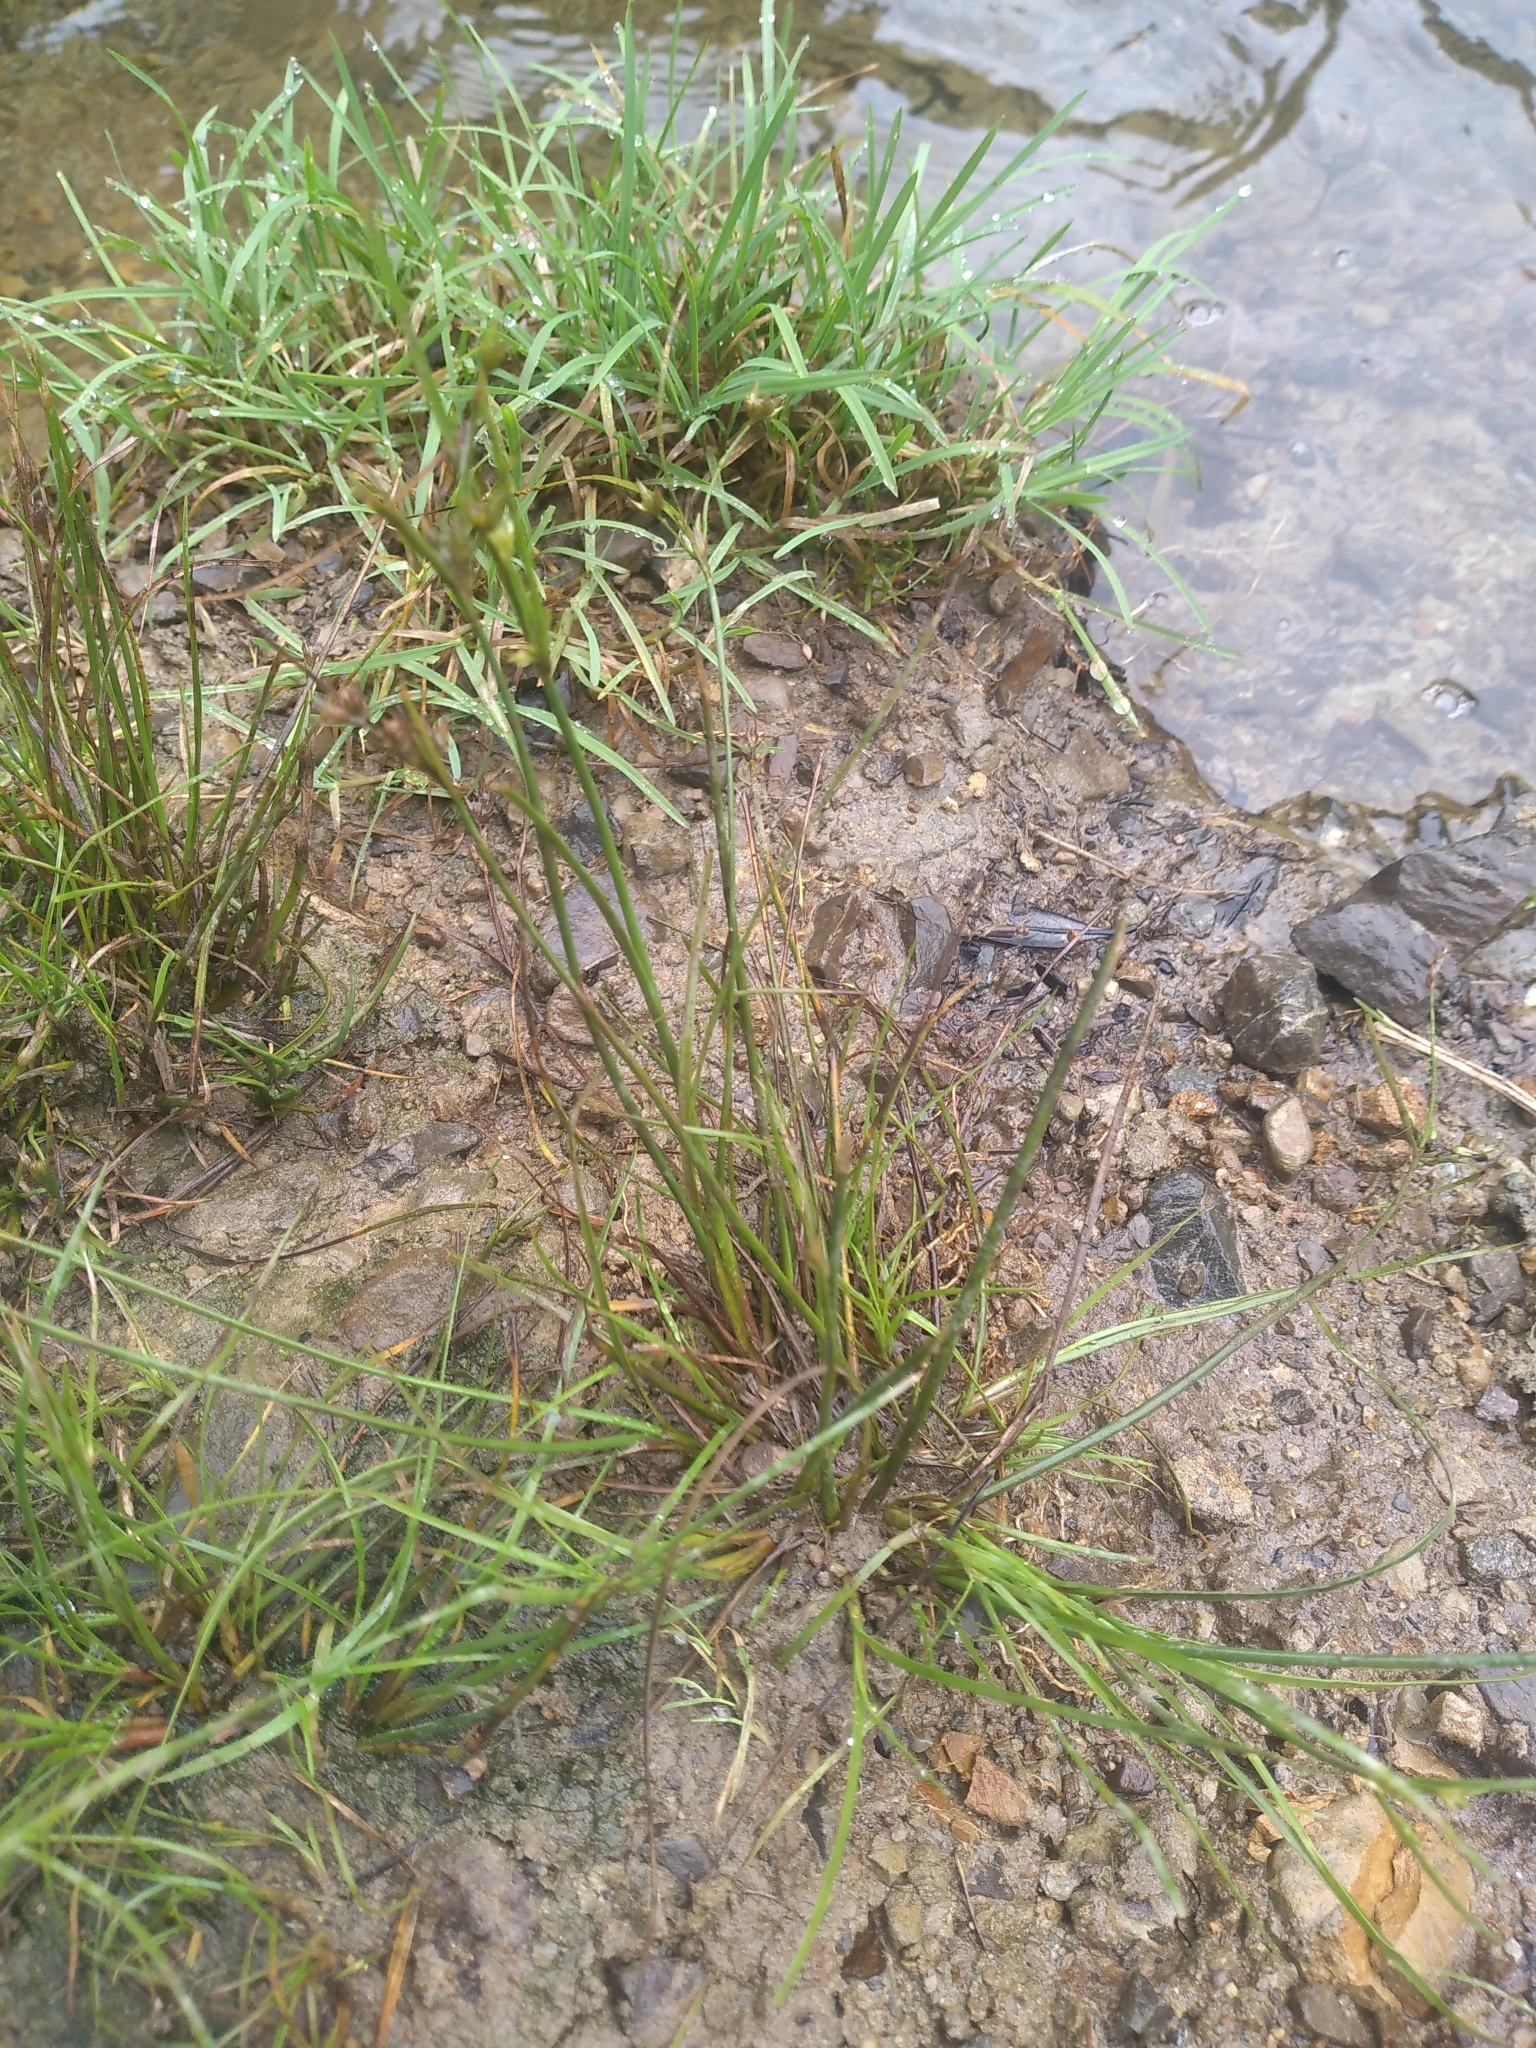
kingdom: Plantae
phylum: Tracheophyta
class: Liliopsida
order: Poales
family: Juncaceae
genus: Juncus
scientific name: Juncus tenuis
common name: Slender rush
